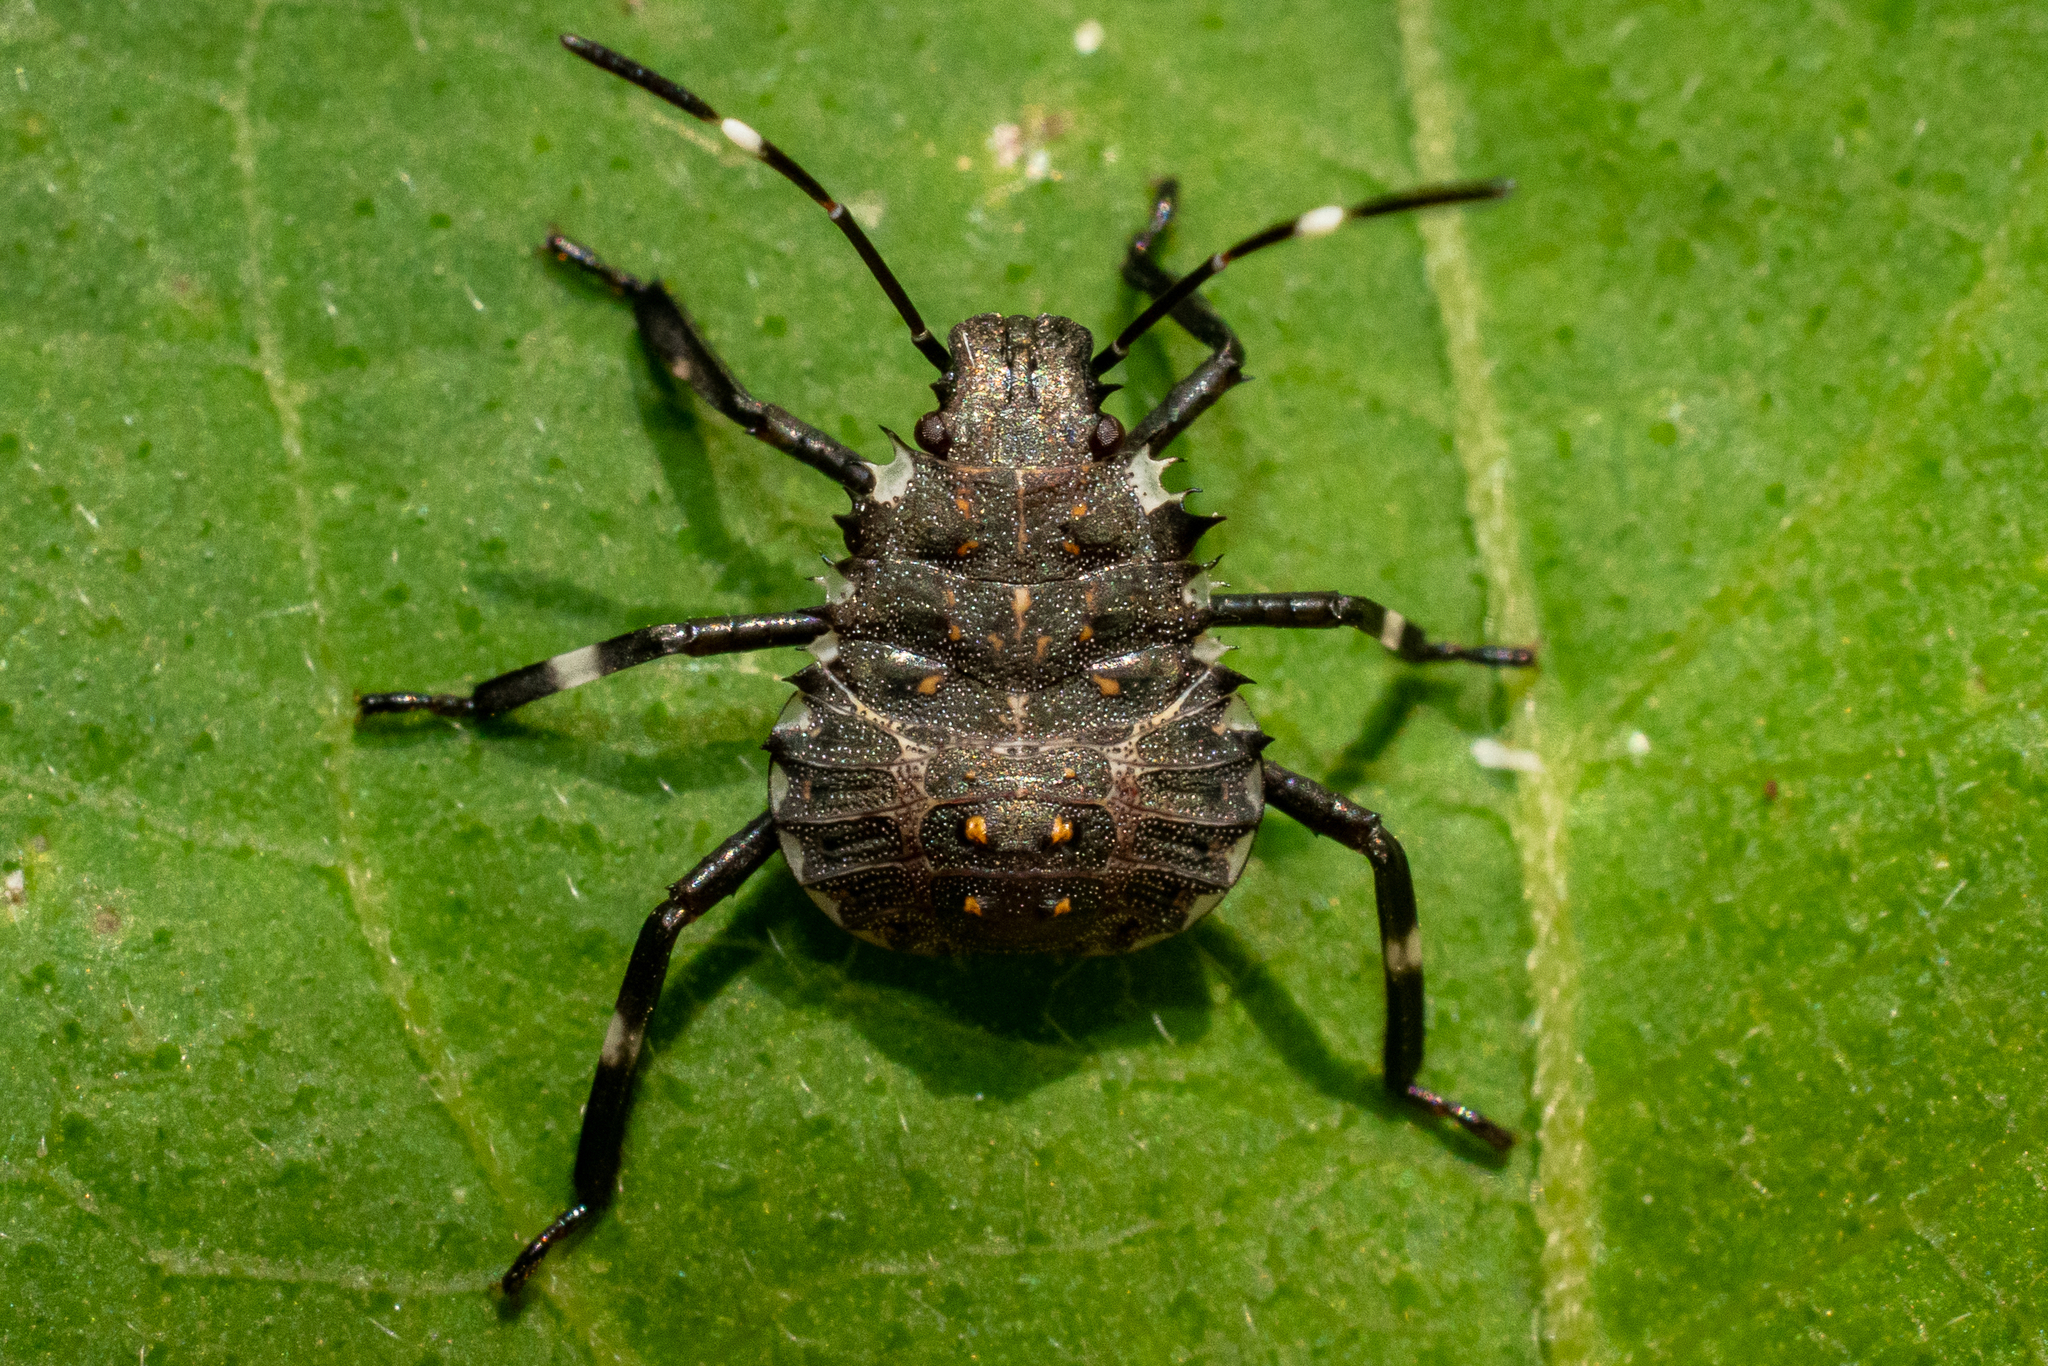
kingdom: Animalia
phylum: Arthropoda
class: Insecta
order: Hemiptera
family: Pentatomidae
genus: Halyomorpha
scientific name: Halyomorpha halys
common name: Brown marmorated stink bug
